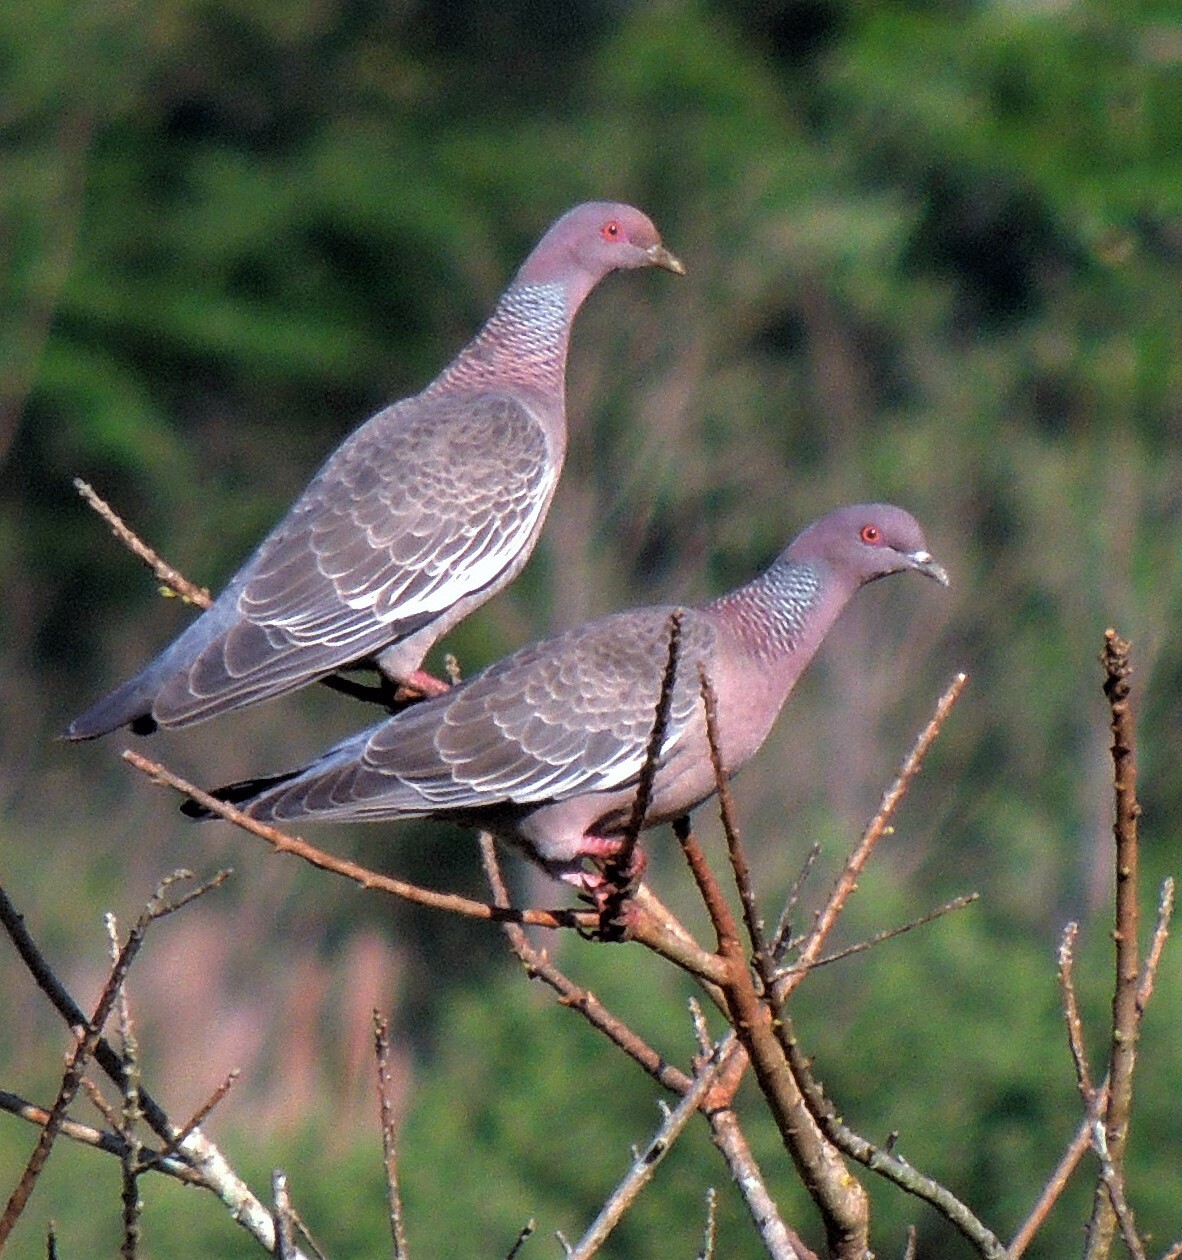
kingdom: Animalia
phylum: Chordata
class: Aves
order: Columbiformes
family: Columbidae
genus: Patagioenas
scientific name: Patagioenas picazuro
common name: Picazuro pigeon
